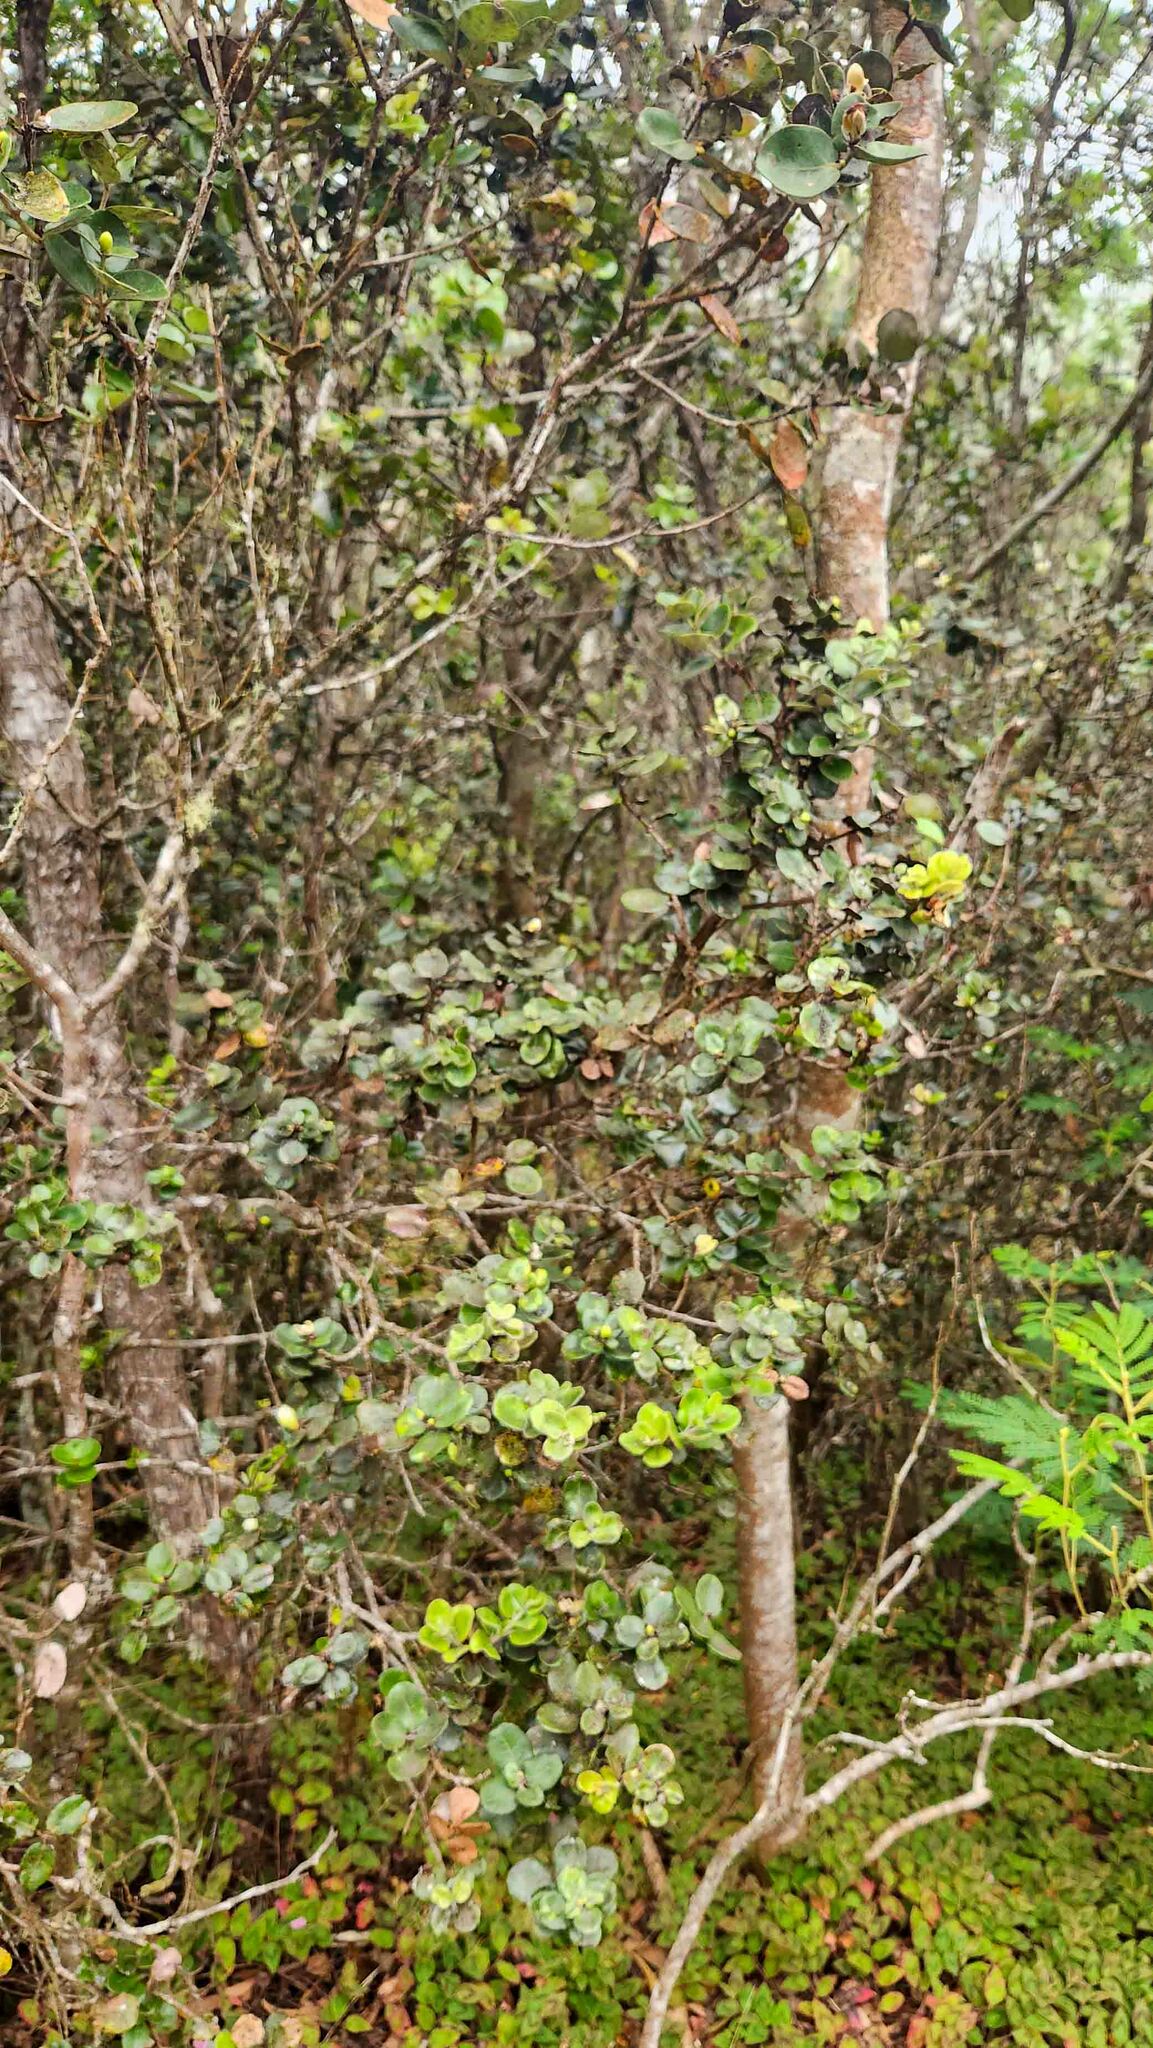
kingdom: Plantae
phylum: Tracheophyta
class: Magnoliopsida
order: Myrtales
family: Myrtaceae
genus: Metrosideros
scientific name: Metrosideros polymorpha
